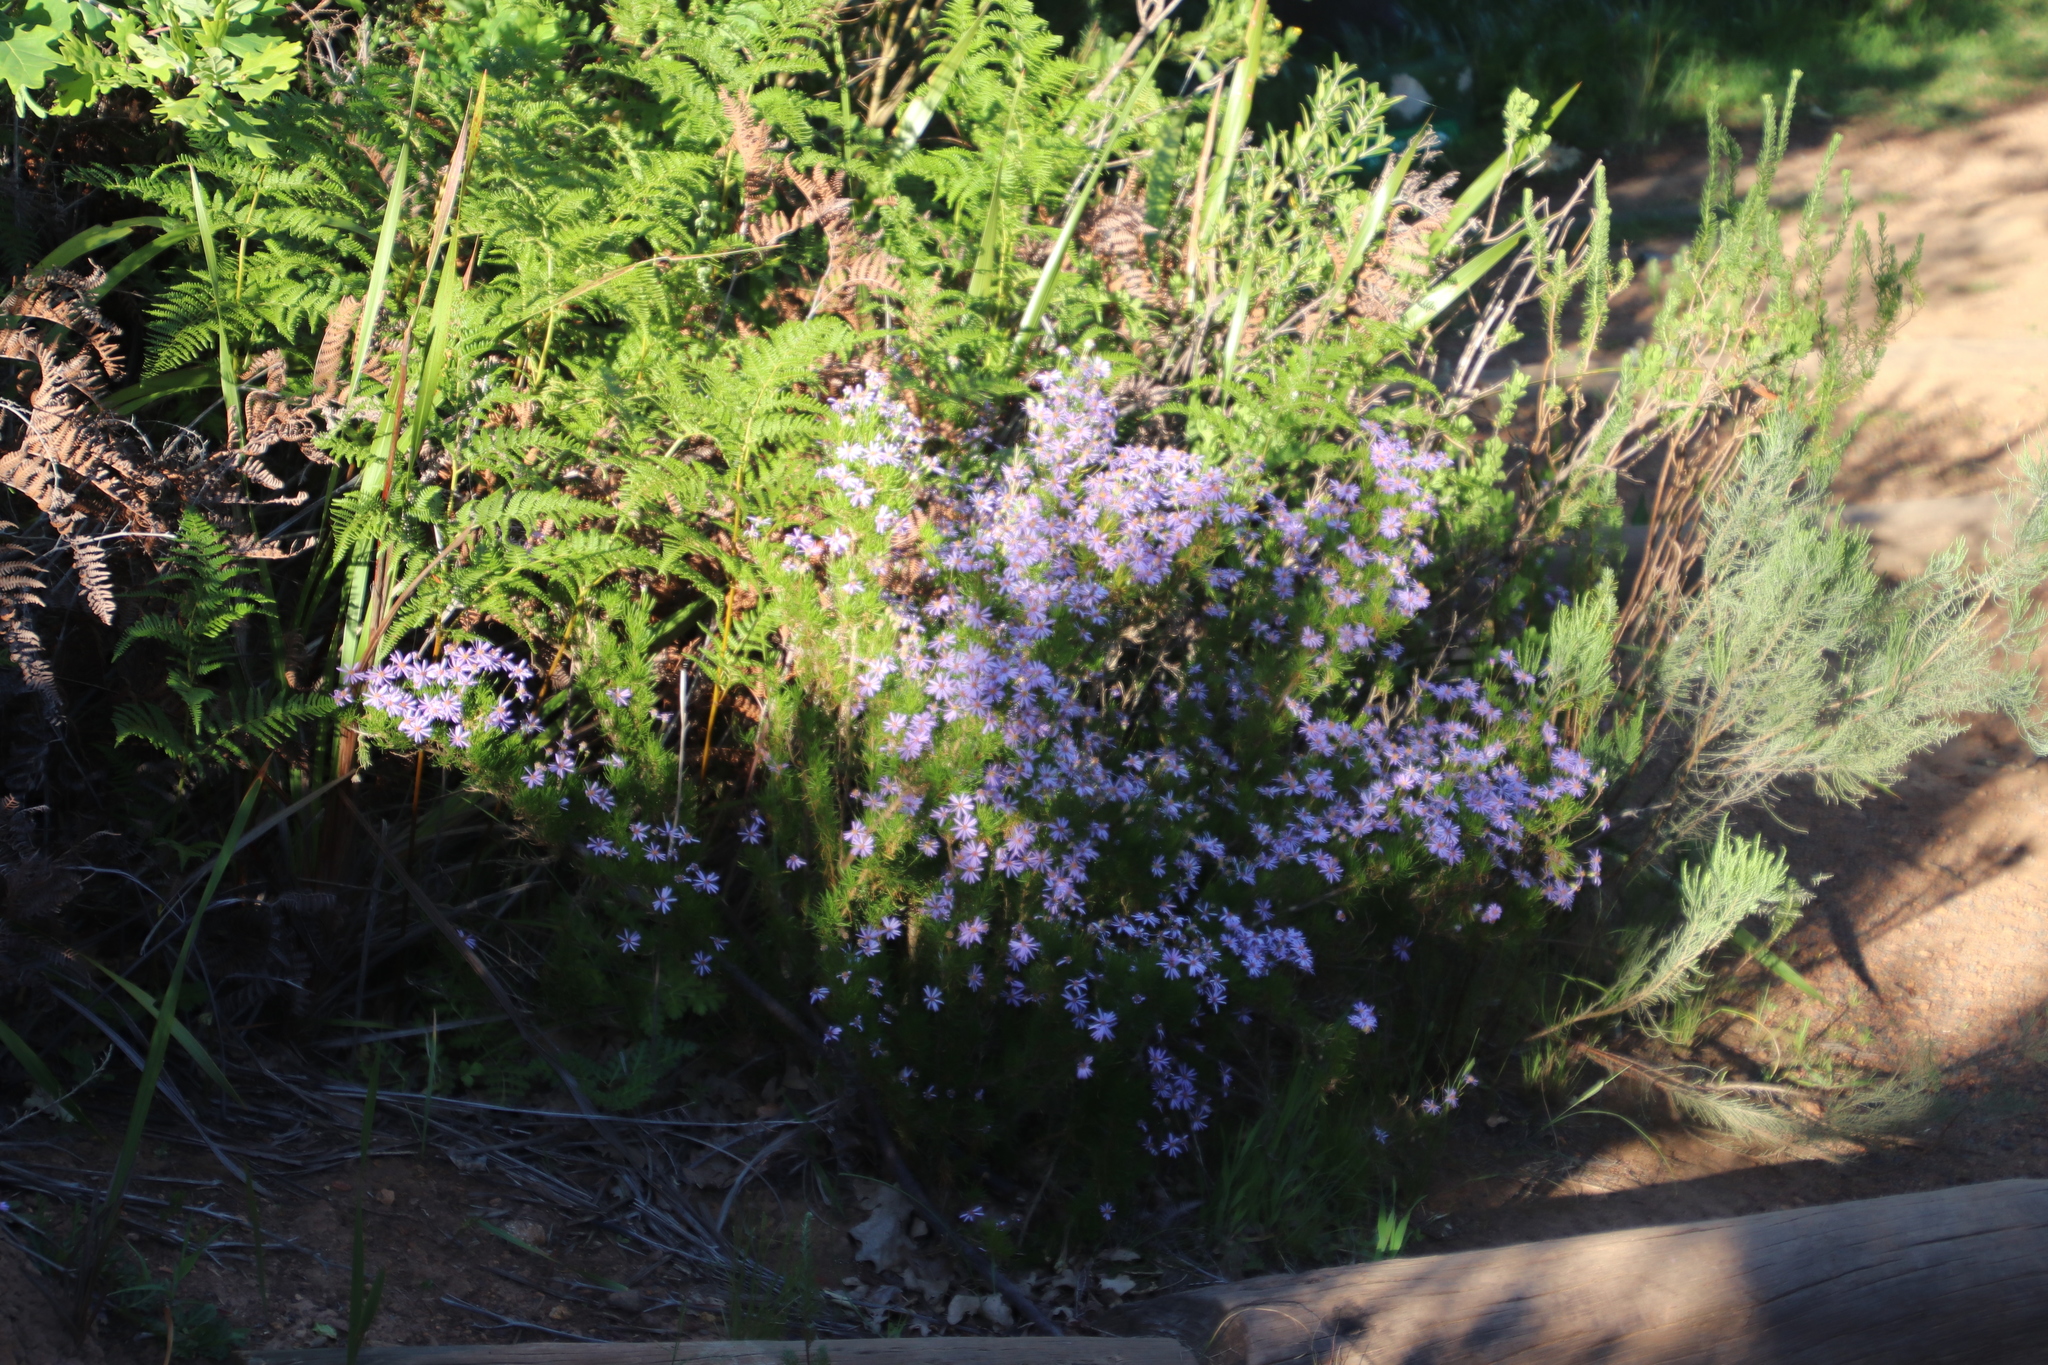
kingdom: Plantae
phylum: Tracheophyta
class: Magnoliopsida
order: Asterales
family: Asteraceae
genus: Felicia
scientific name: Felicia fruticosa
